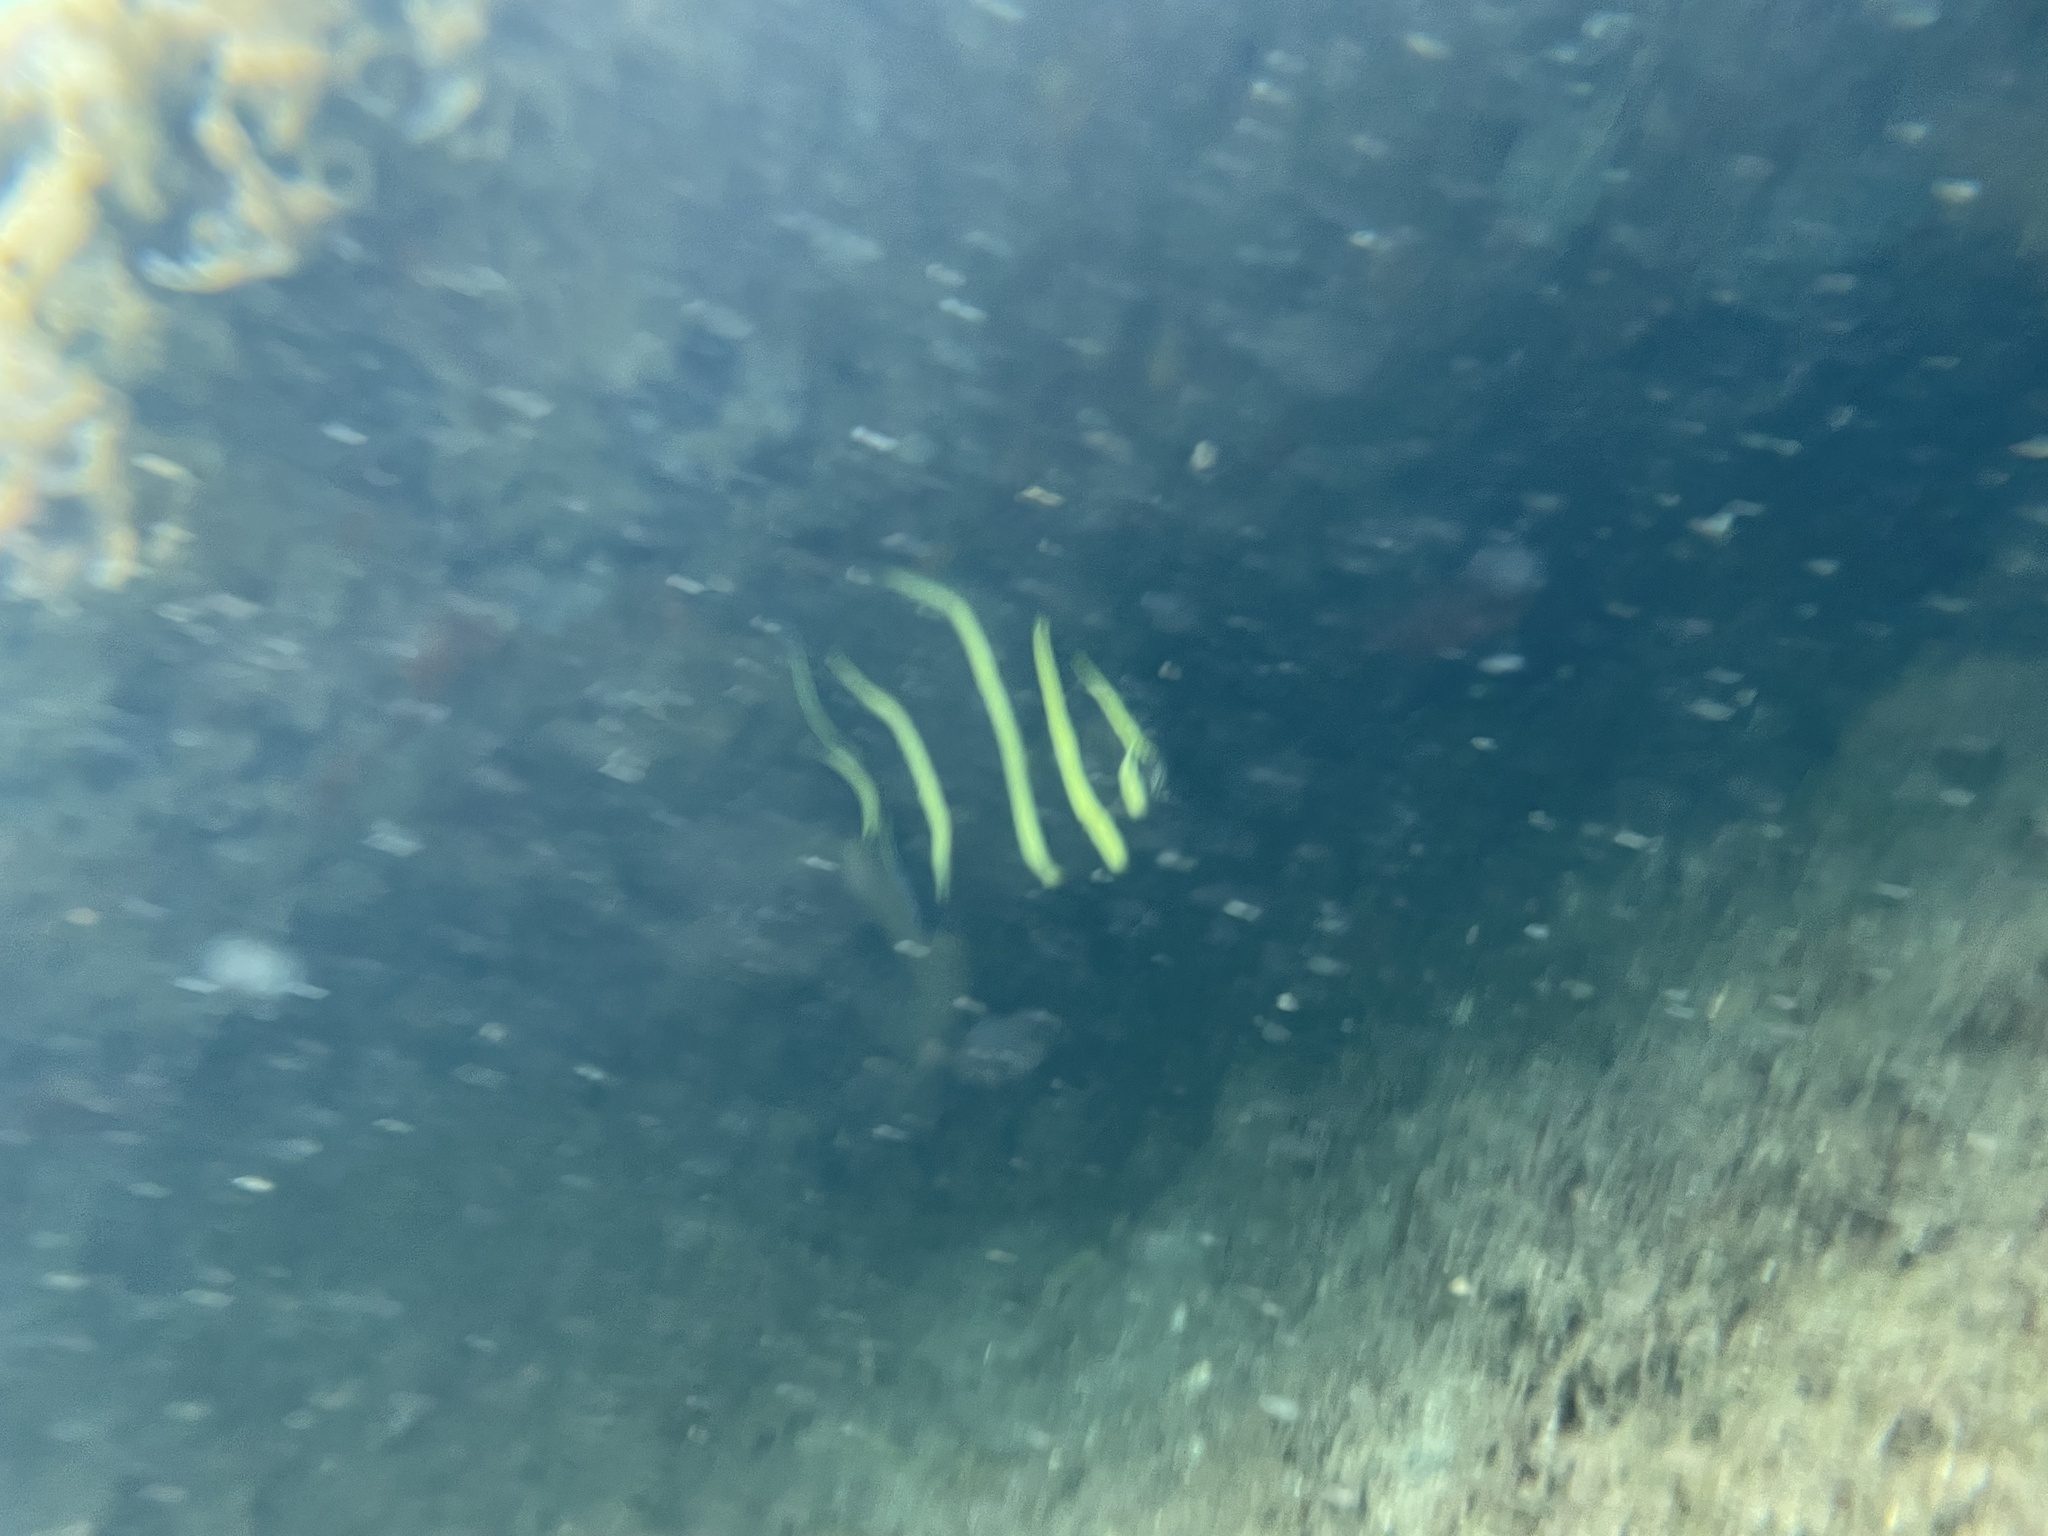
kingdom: Animalia
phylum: Chordata
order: Perciformes
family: Pomacanthidae
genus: Pomacanthus
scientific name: Pomacanthus arcuatus
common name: Gray angelfish
